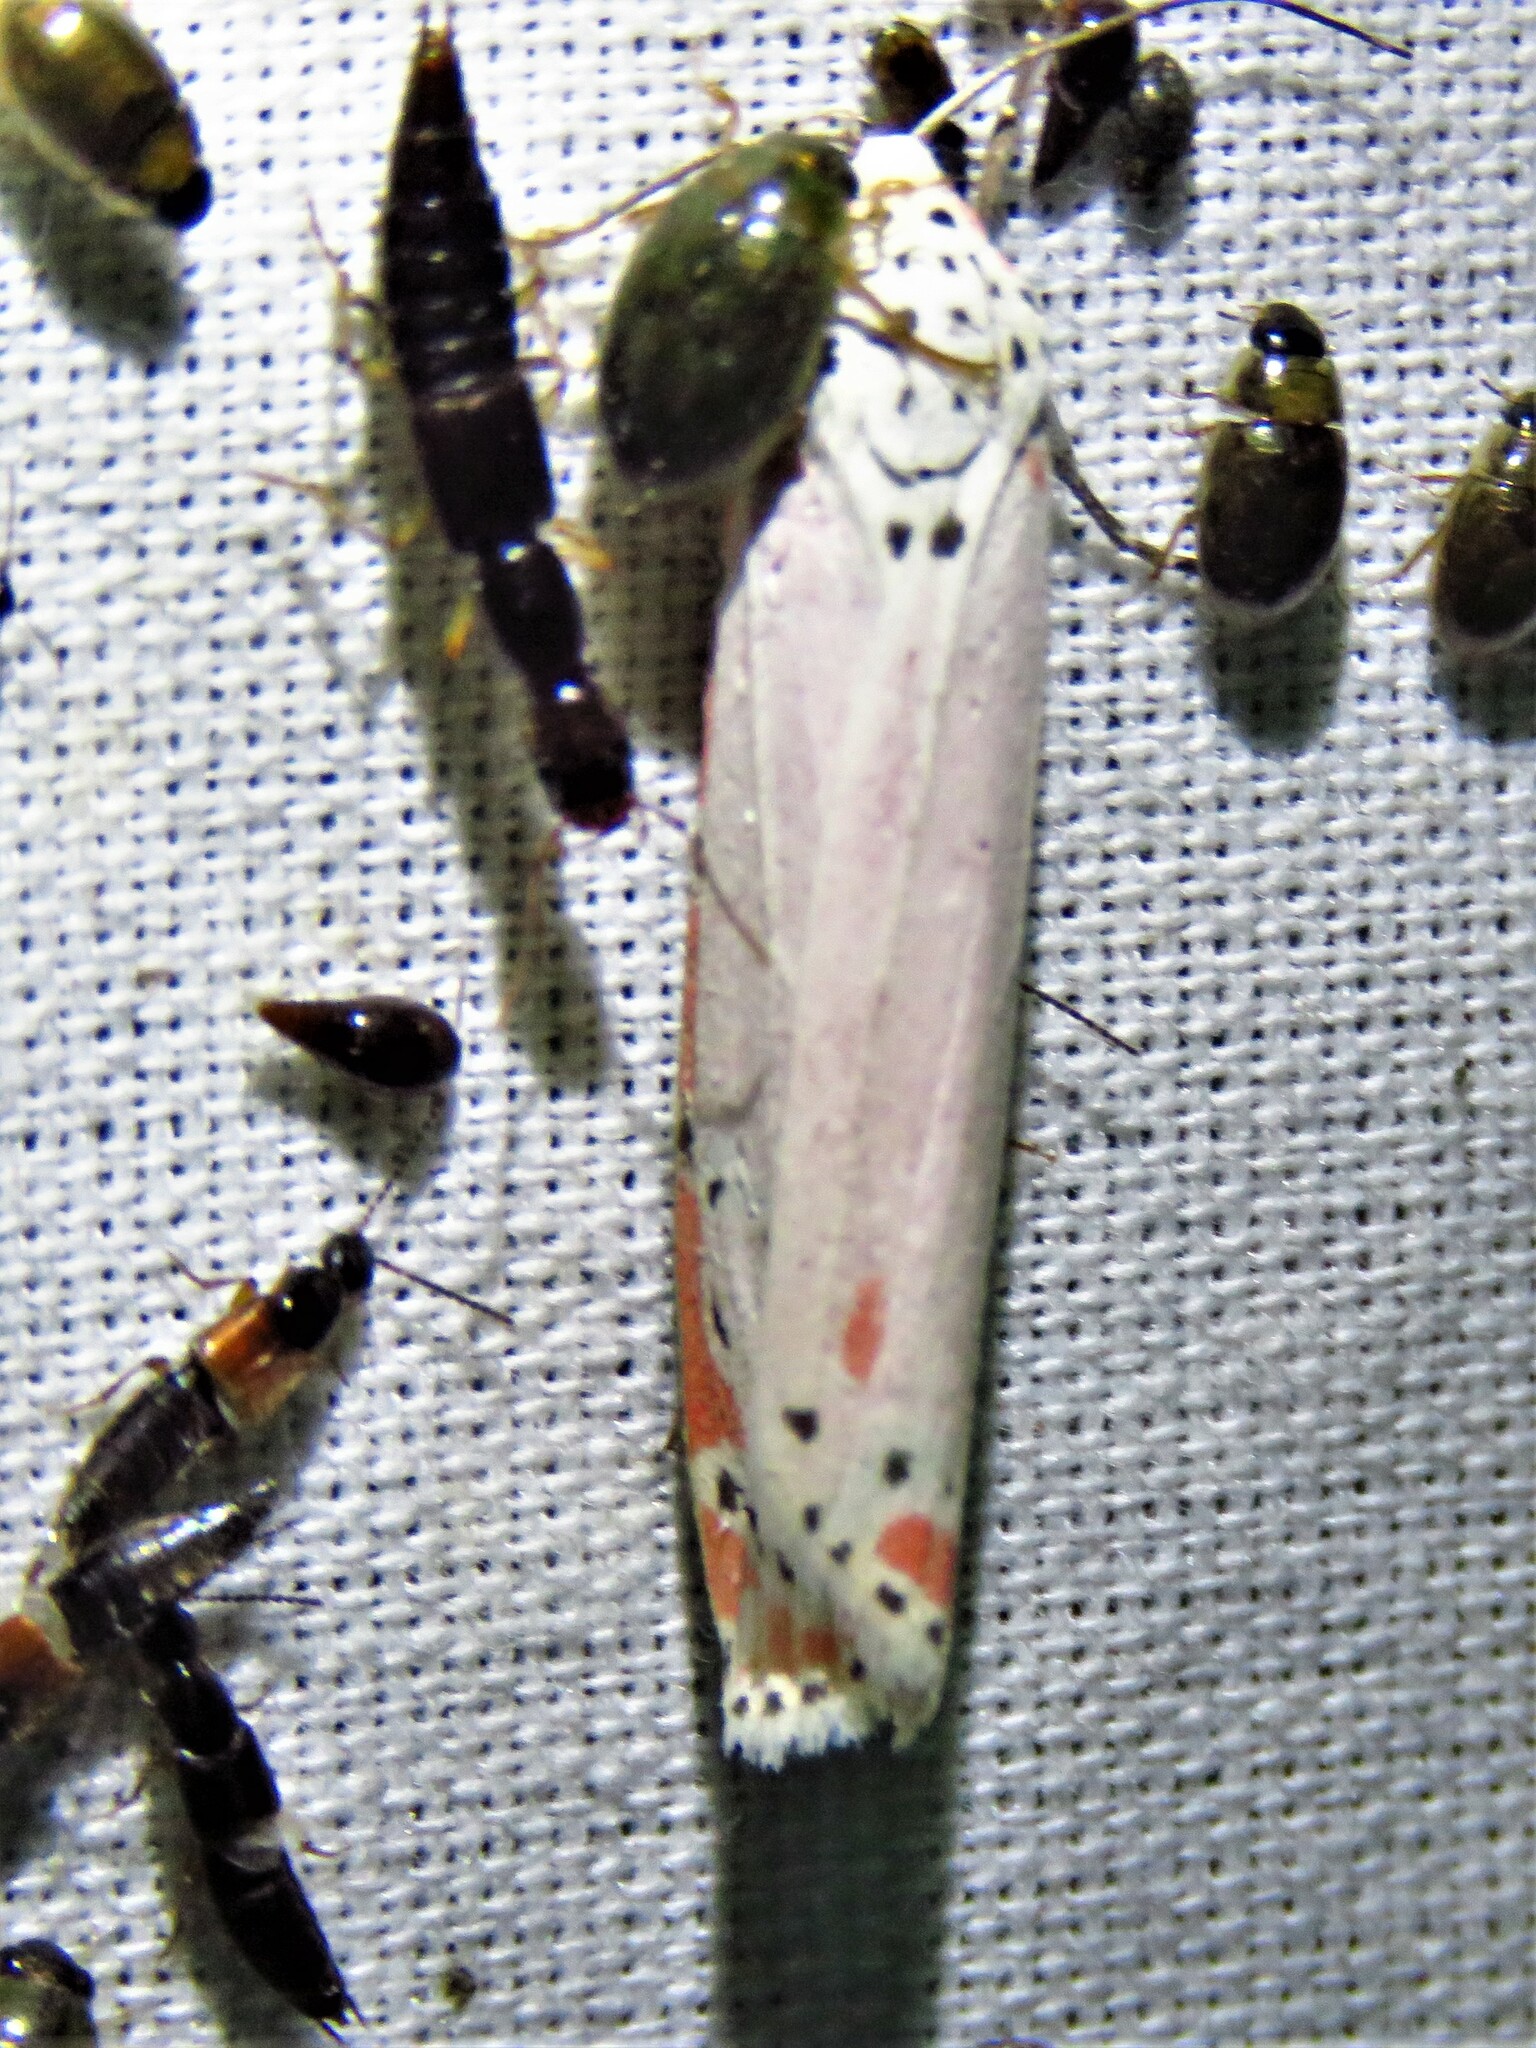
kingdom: Animalia
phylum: Arthropoda
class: Insecta
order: Lepidoptera
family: Erebidae
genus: Utetheisa
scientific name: Utetheisa ornatrix
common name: Beautiful utetheisa
